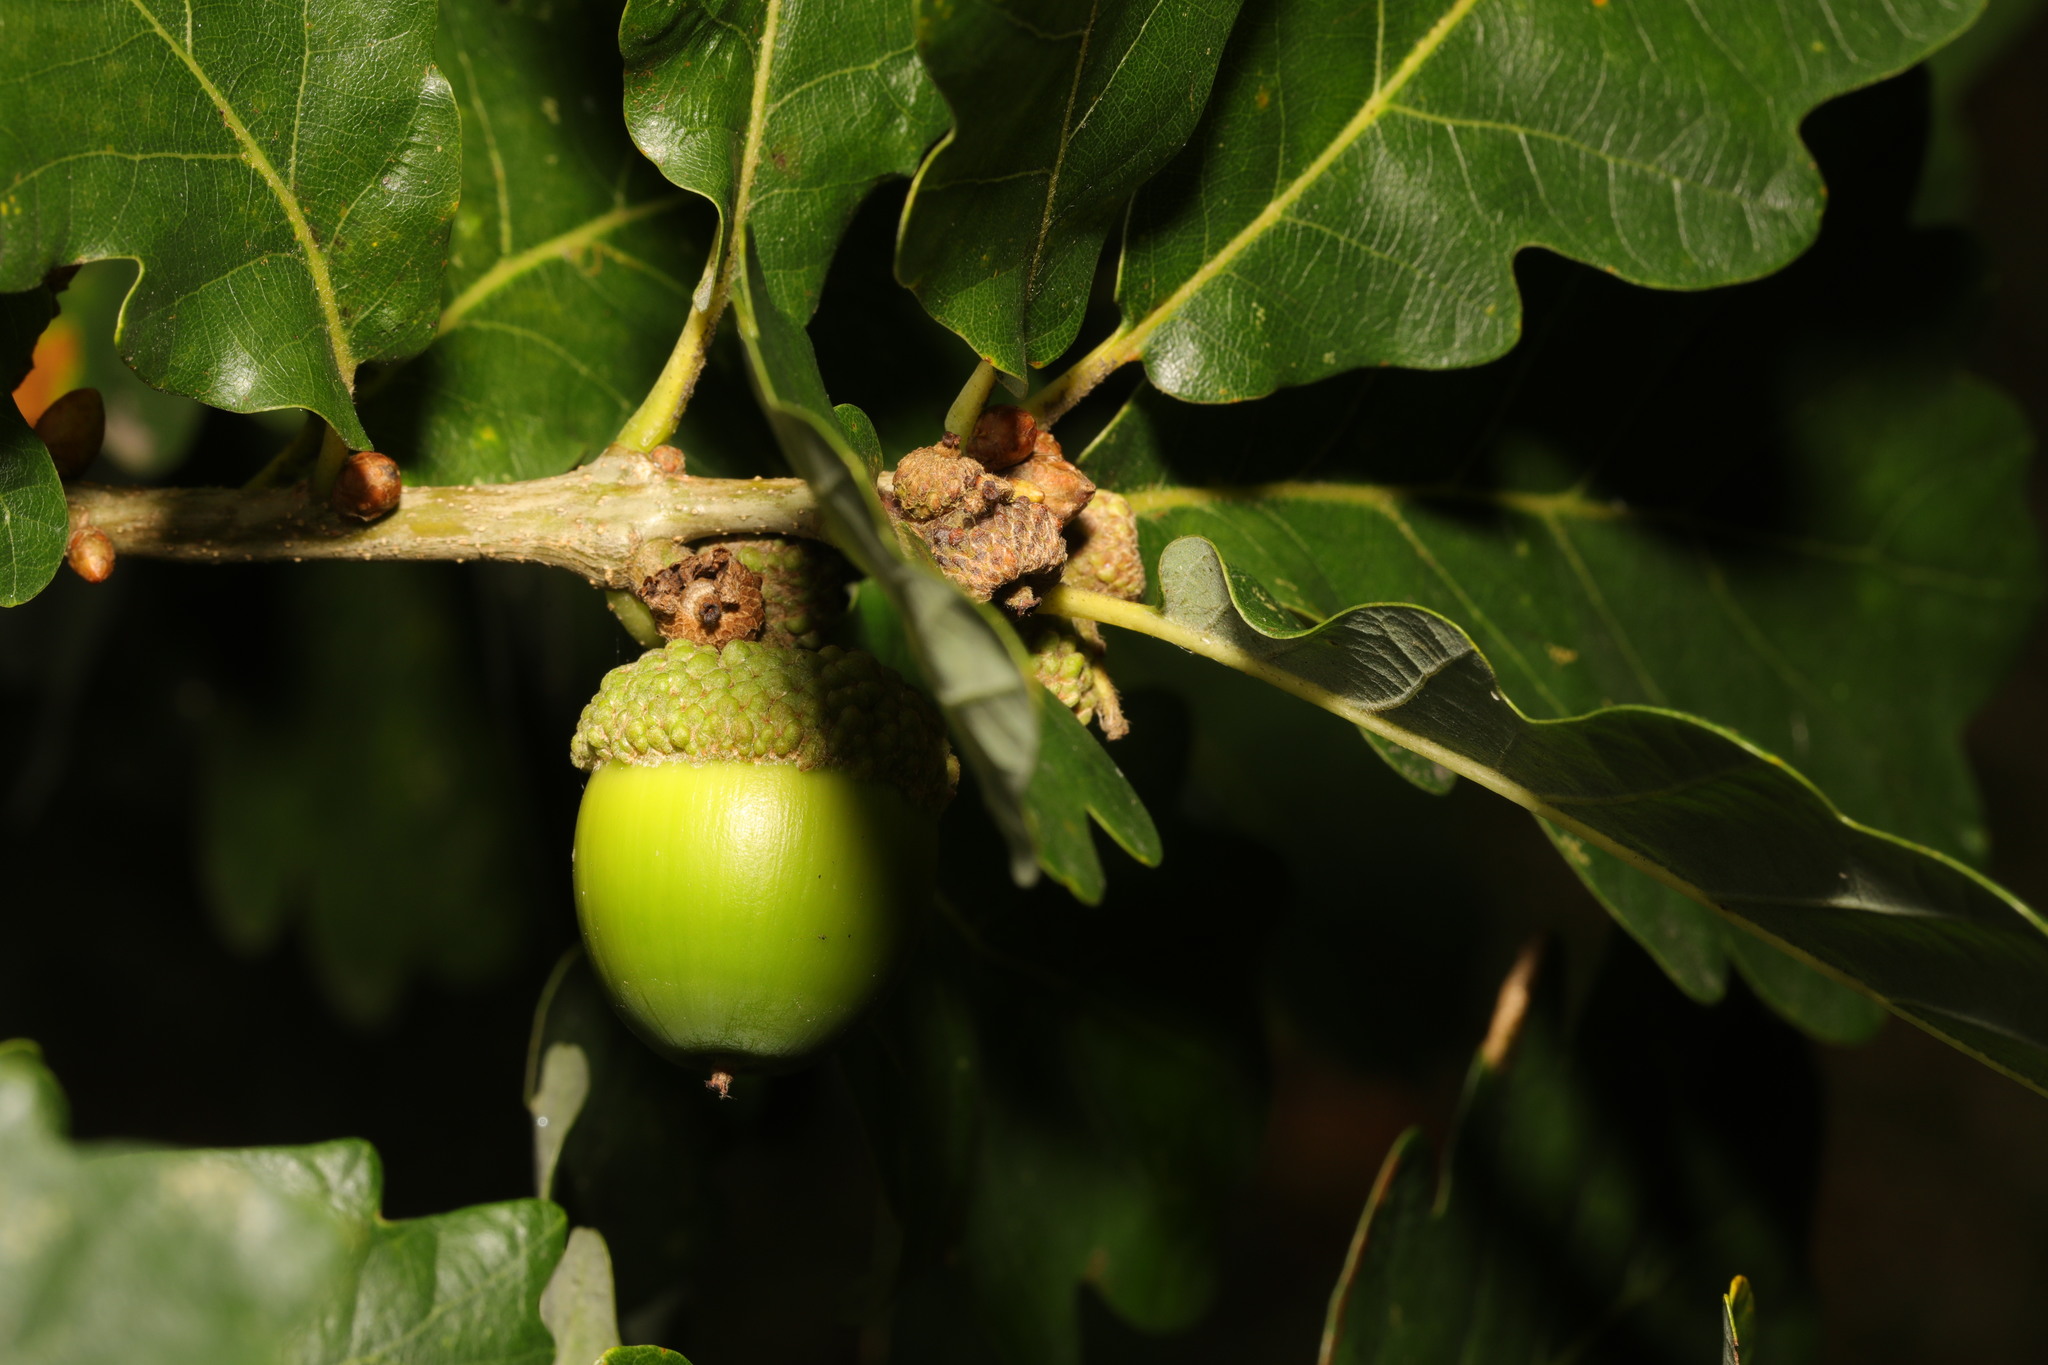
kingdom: Plantae
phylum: Tracheophyta
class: Magnoliopsida
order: Fagales
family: Fagaceae
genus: Quercus
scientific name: Quercus petraea
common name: Sessile oak
